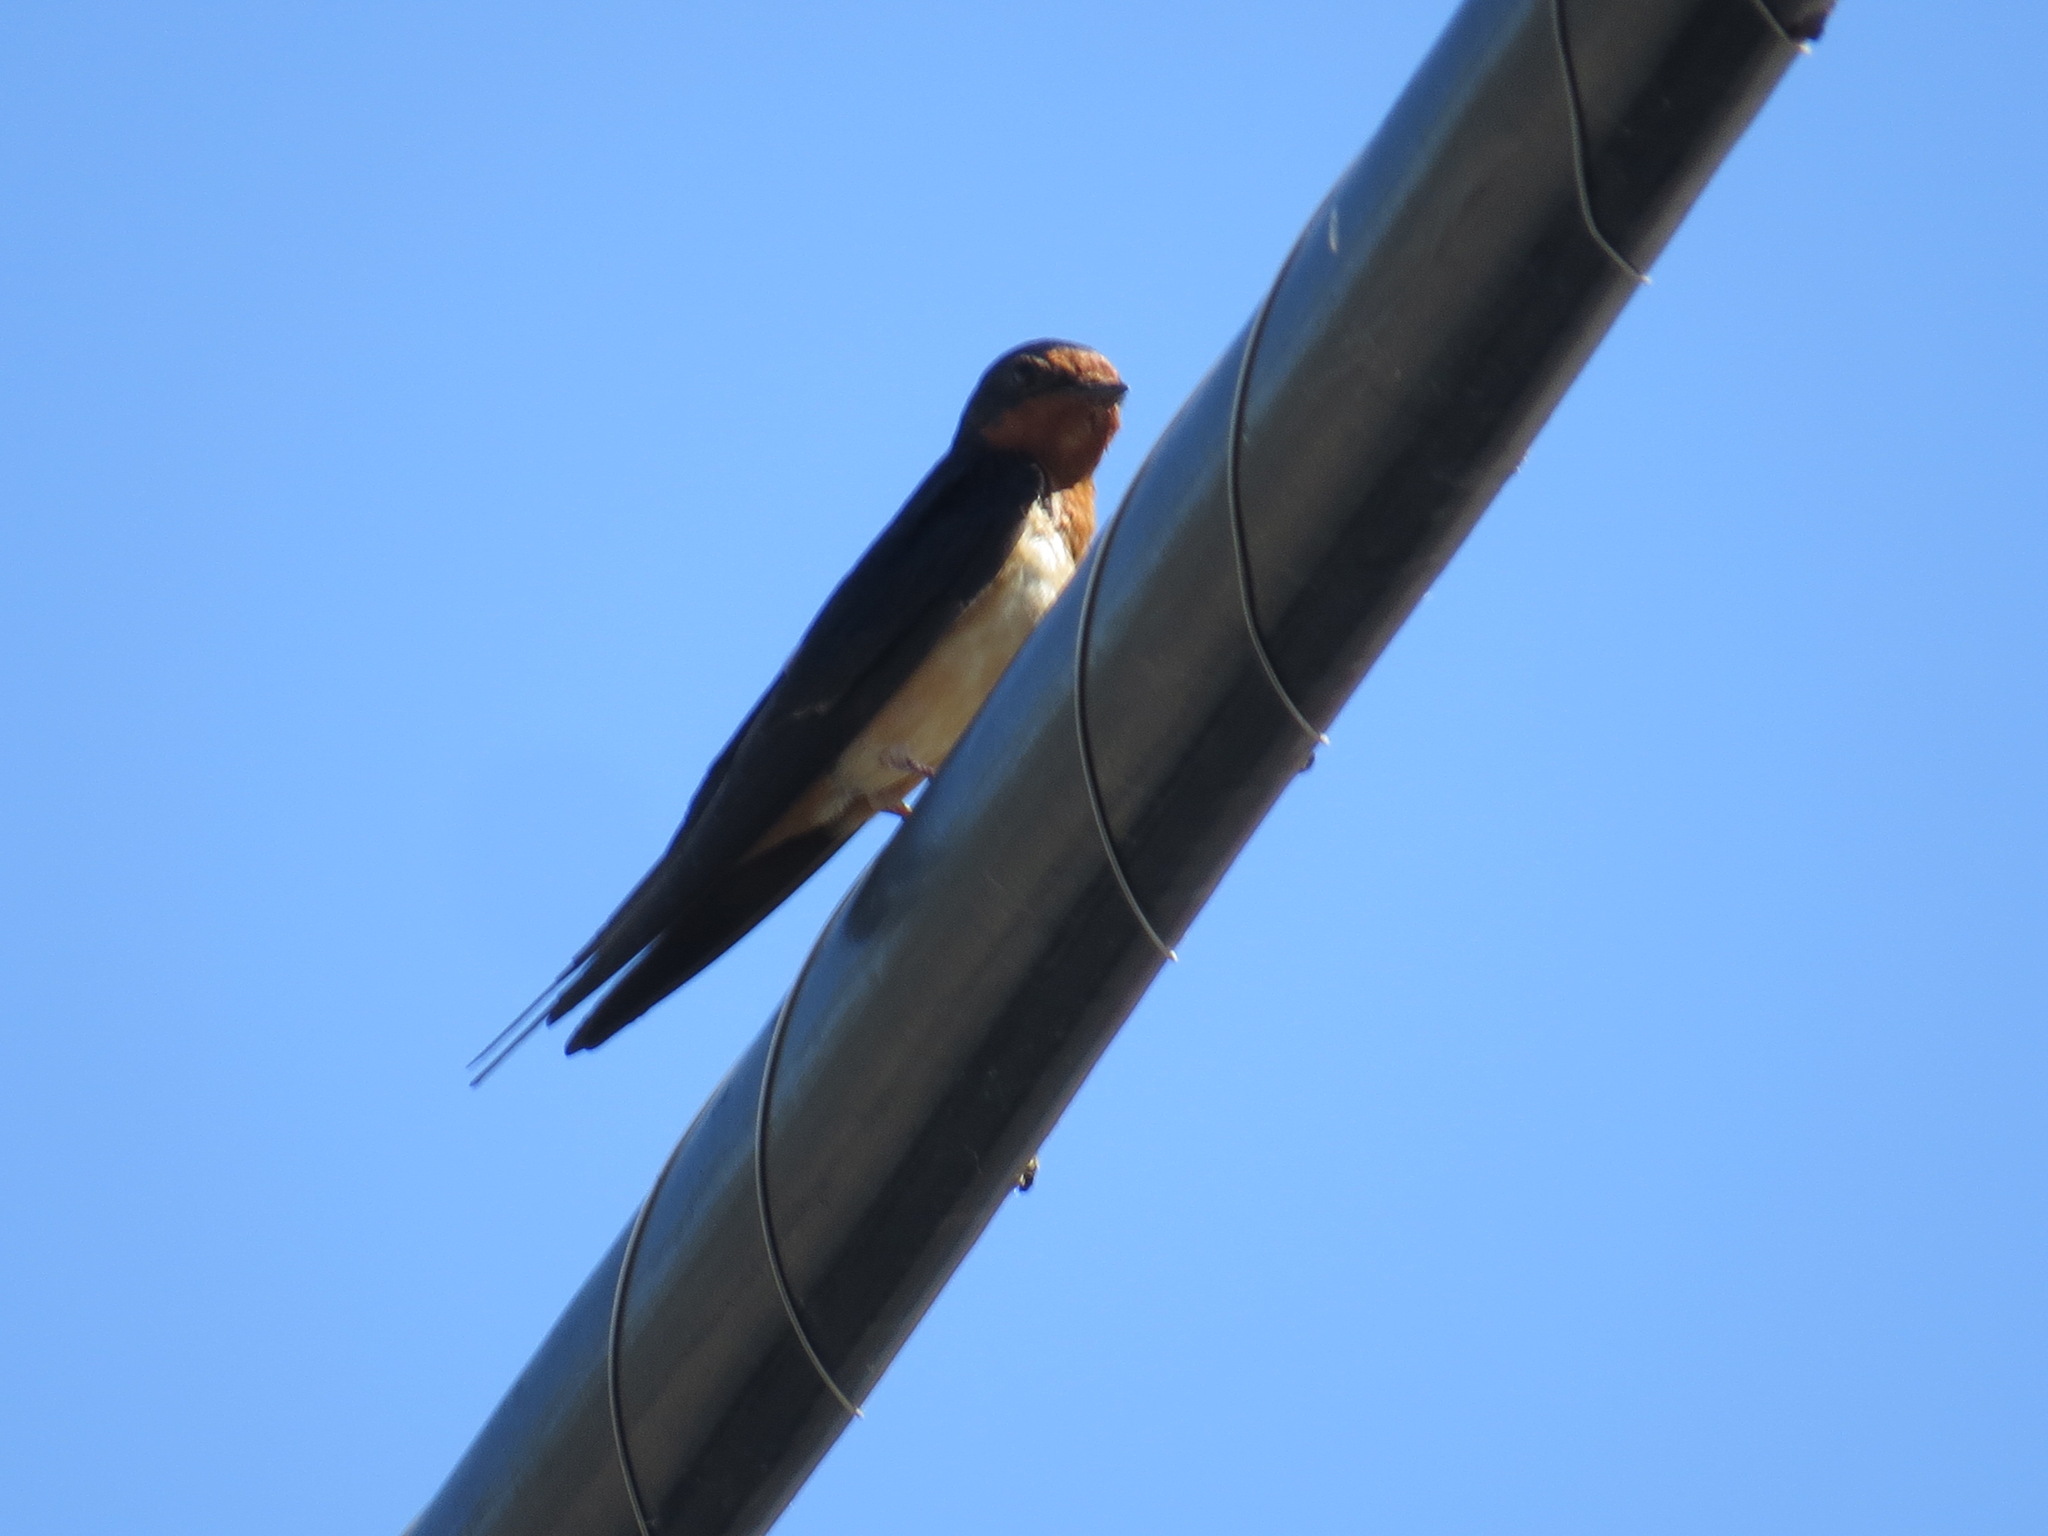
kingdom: Animalia
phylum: Chordata
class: Aves
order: Passeriformes
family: Hirundinidae
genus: Hirundo
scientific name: Hirundo rustica
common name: Barn swallow
